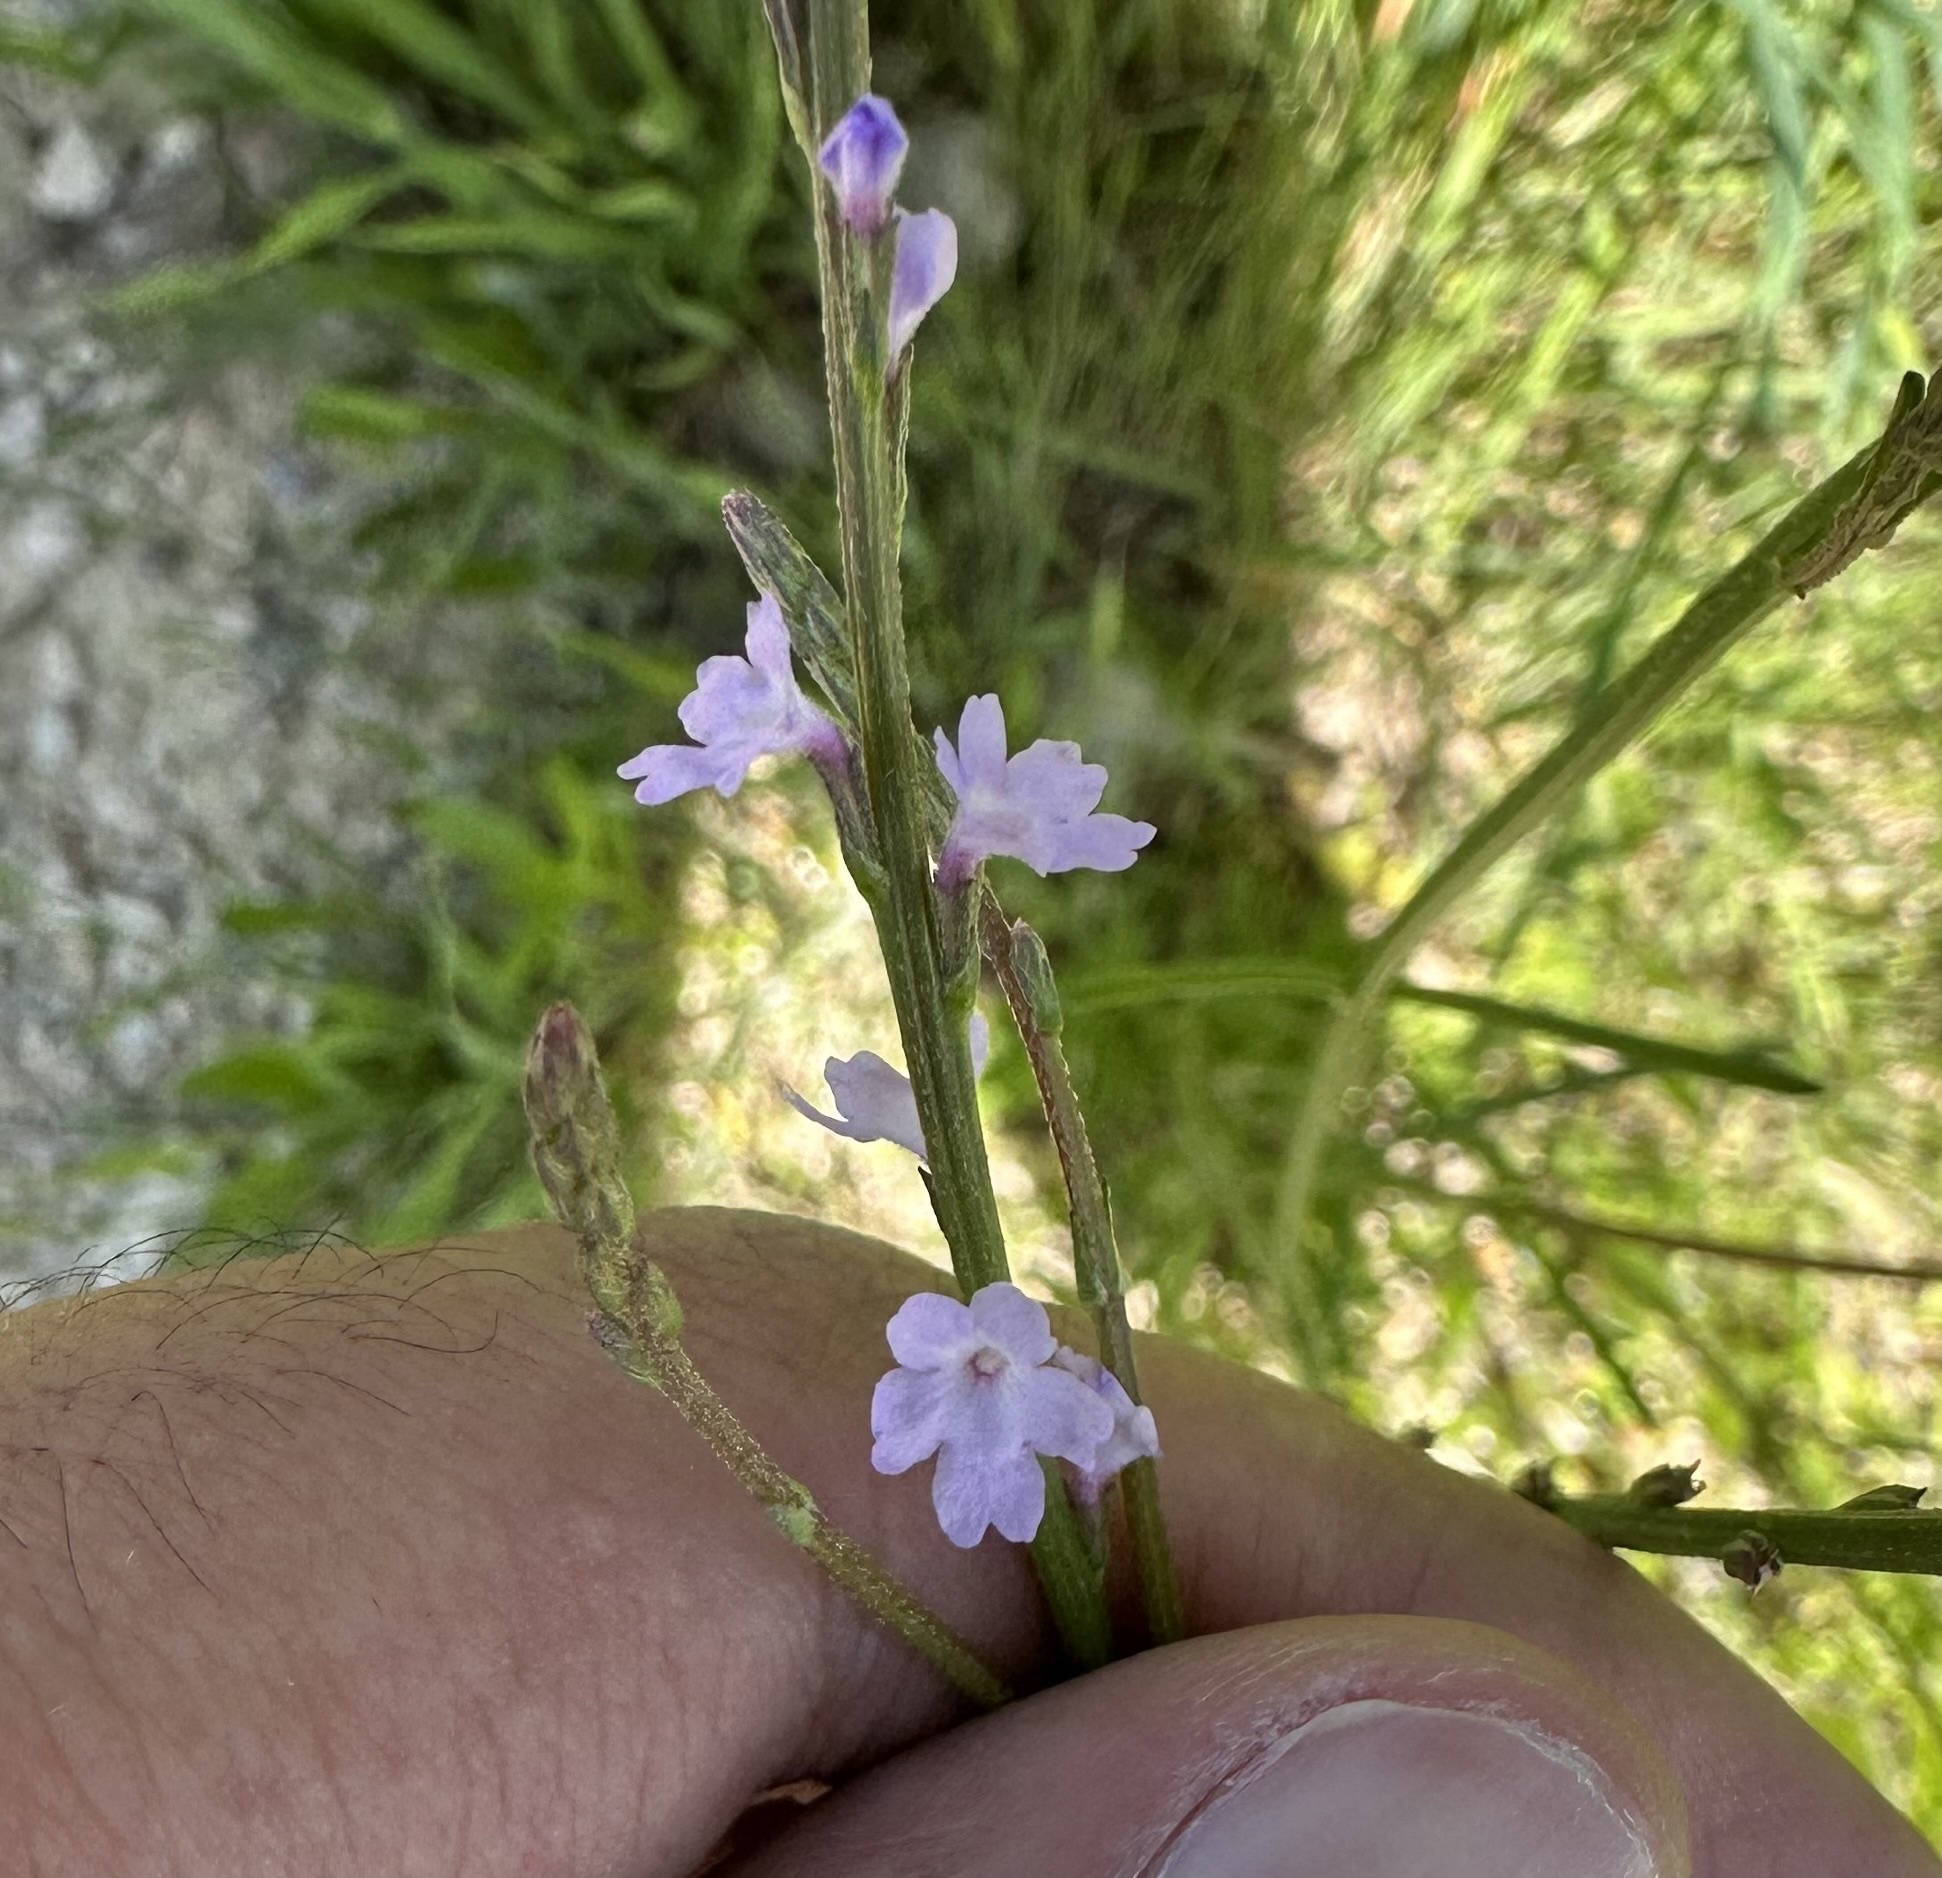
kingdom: Plantae
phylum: Tracheophyta
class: Magnoliopsida
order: Lamiales
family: Verbenaceae
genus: Verbena
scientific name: Verbena halei
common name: Texas vervain
